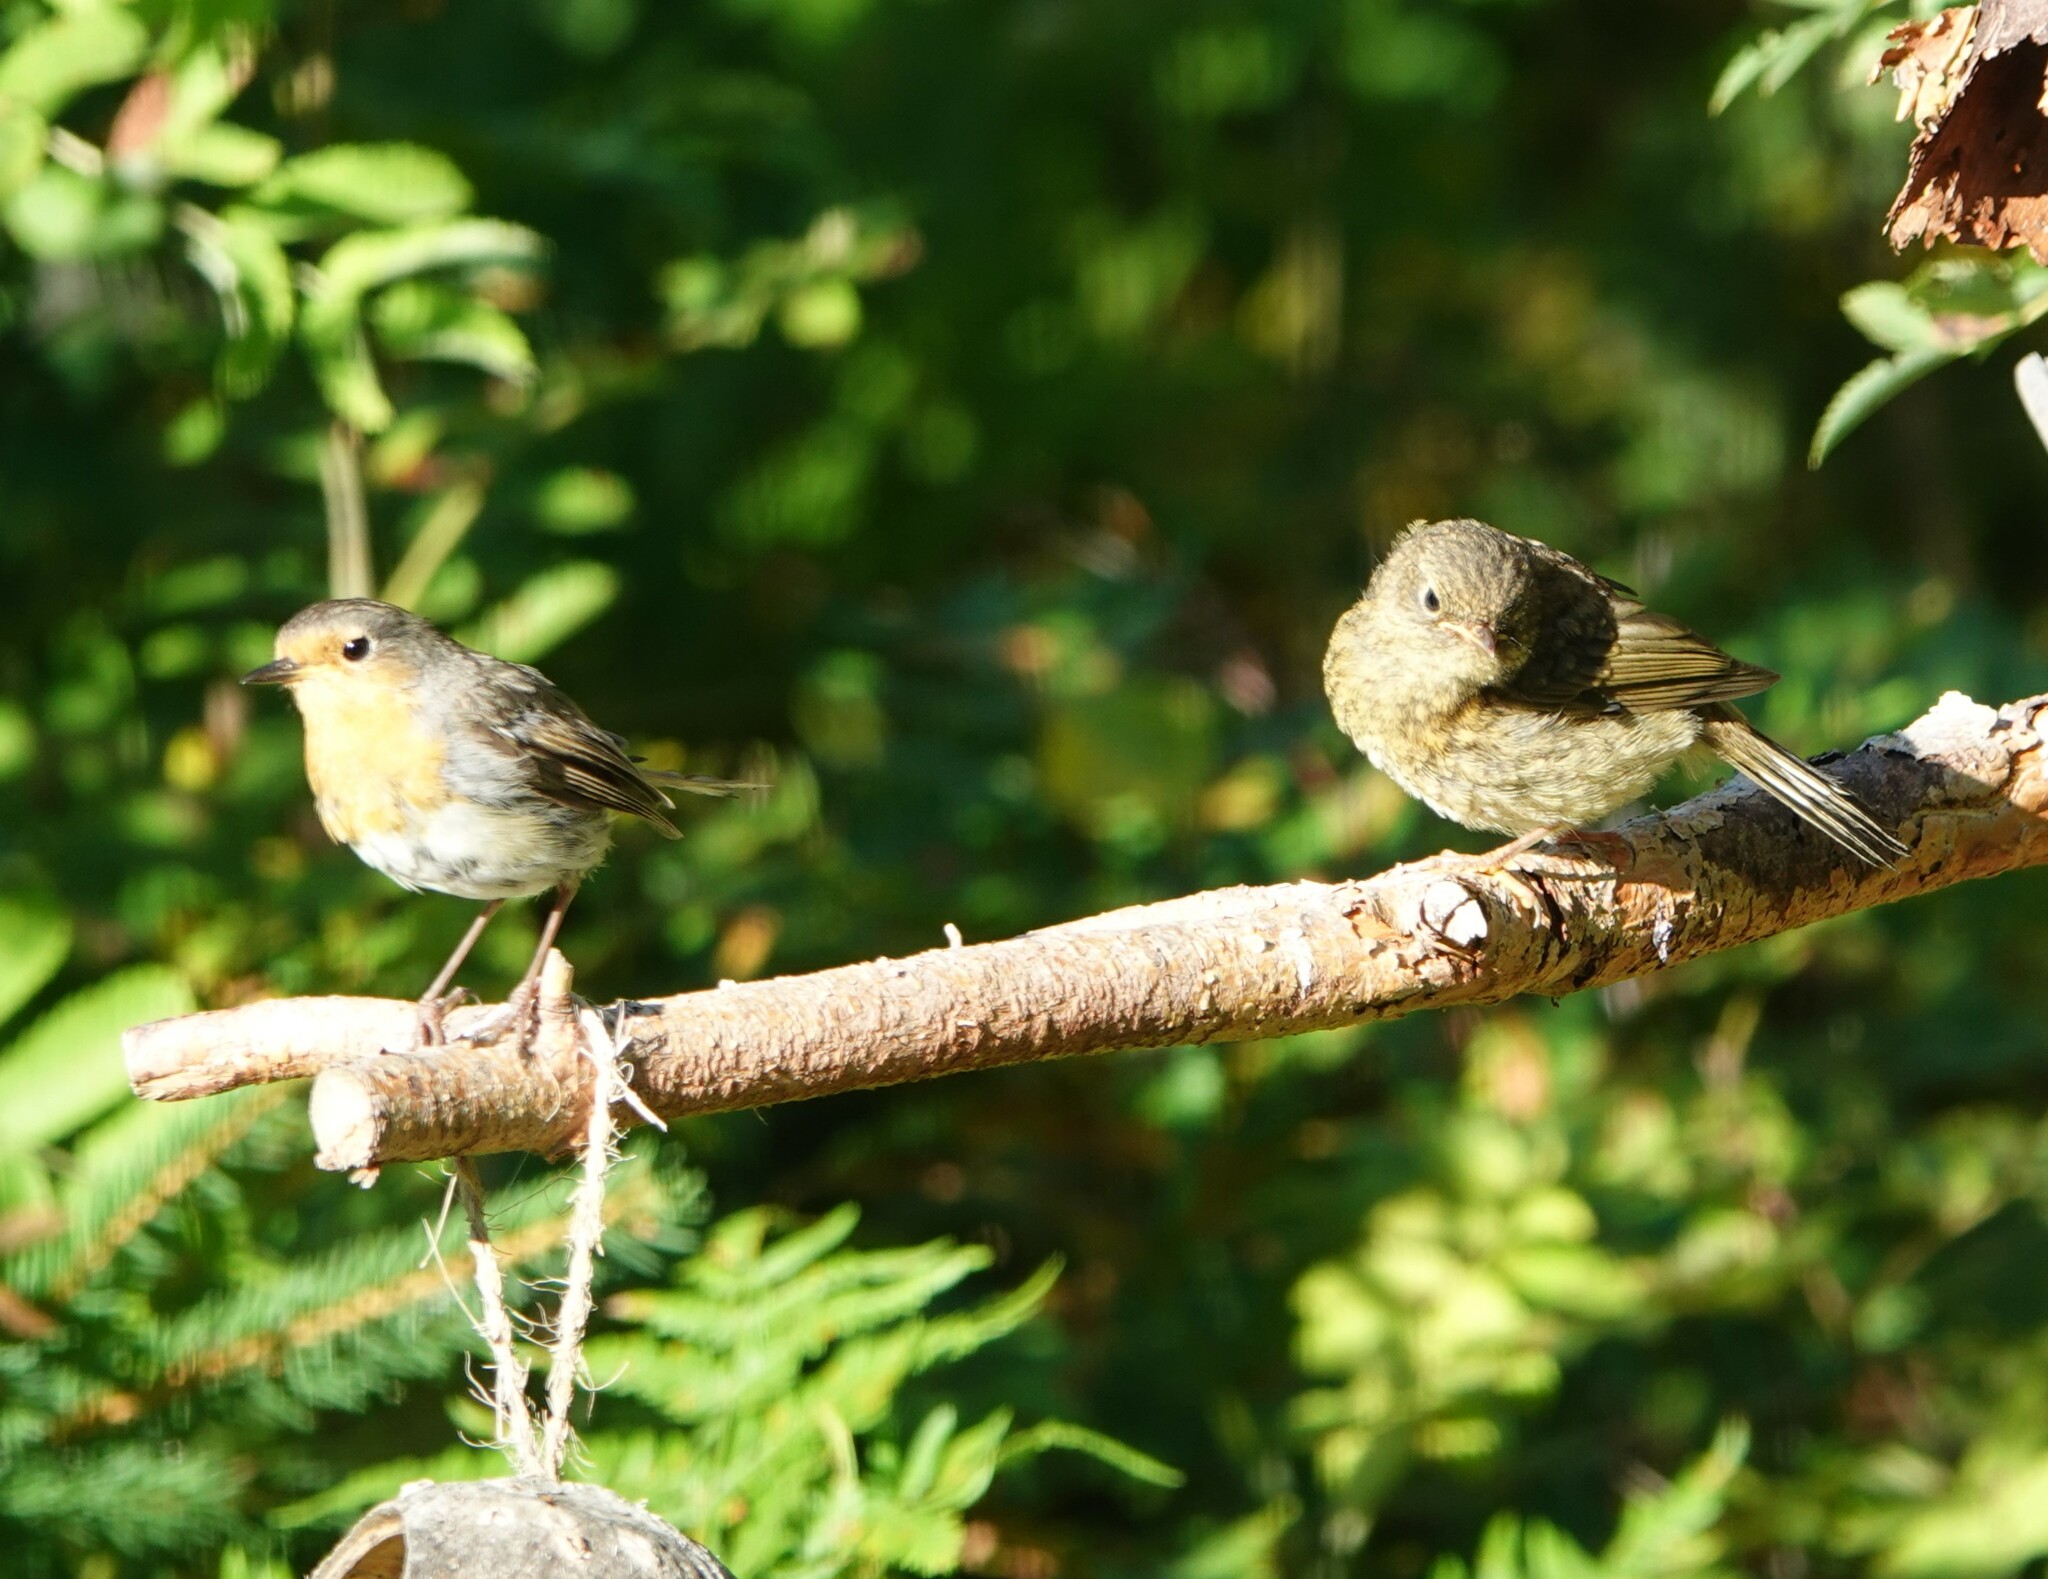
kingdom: Animalia
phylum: Chordata
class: Aves
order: Passeriformes
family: Muscicapidae
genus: Erithacus
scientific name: Erithacus rubecula
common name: European robin
